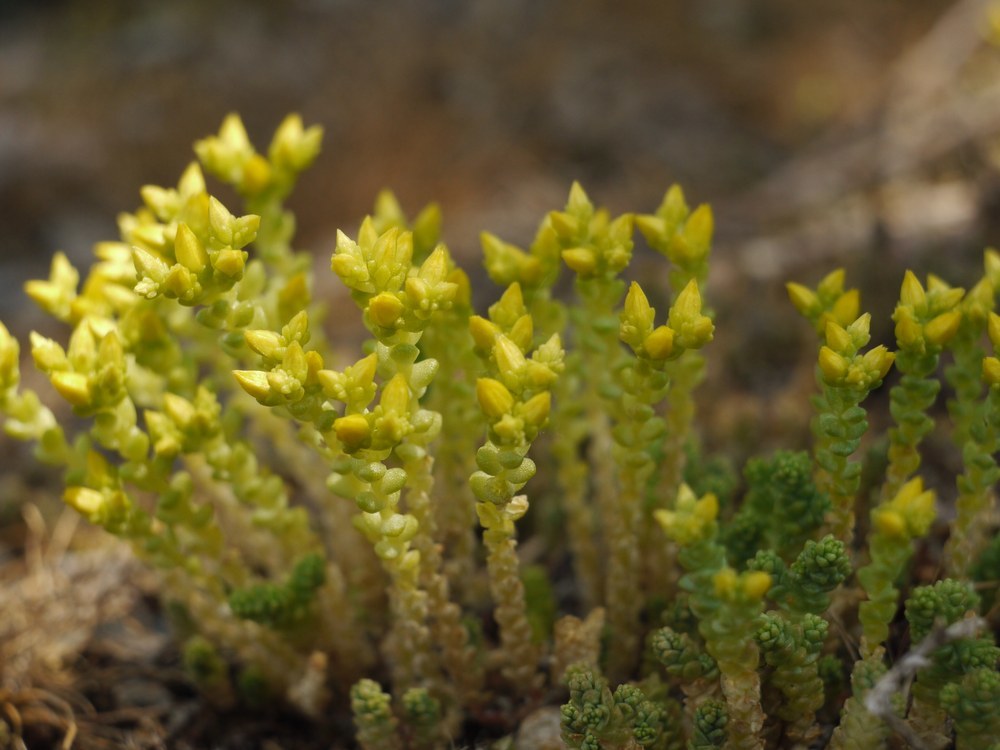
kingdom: Plantae
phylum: Tracheophyta
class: Magnoliopsida
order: Saxifragales
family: Crassulaceae
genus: Sedum
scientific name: Sedum acre
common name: Biting stonecrop
